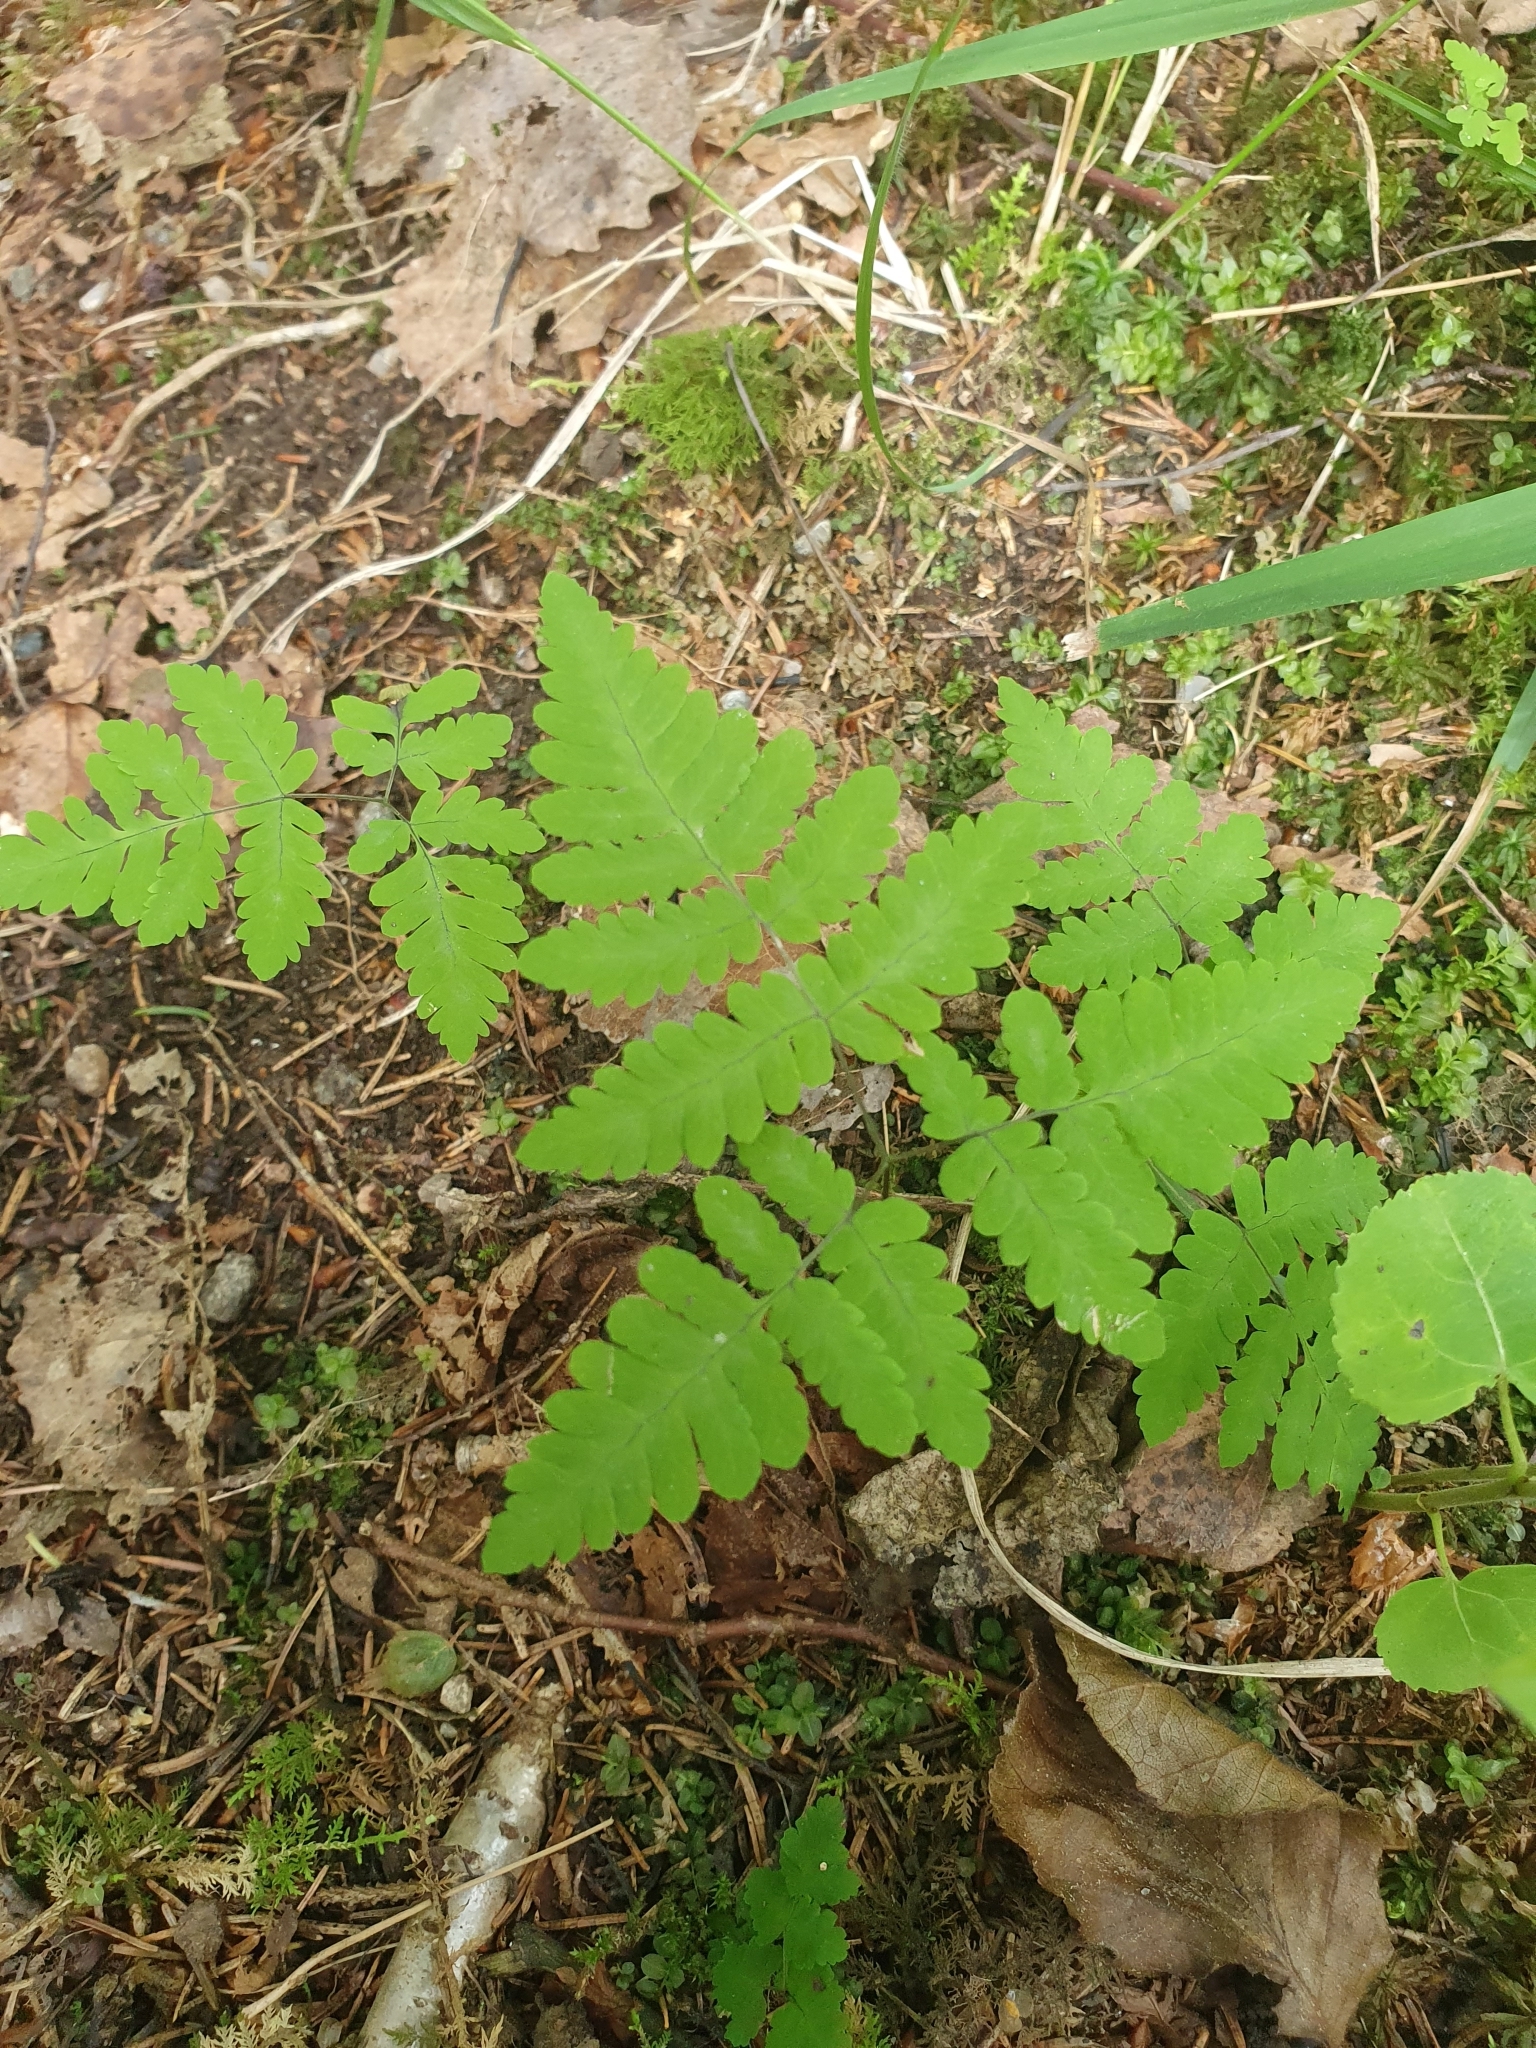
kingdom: Plantae
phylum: Tracheophyta
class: Polypodiopsida
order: Polypodiales
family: Cystopteridaceae
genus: Gymnocarpium
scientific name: Gymnocarpium dryopteris
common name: Oak fern
